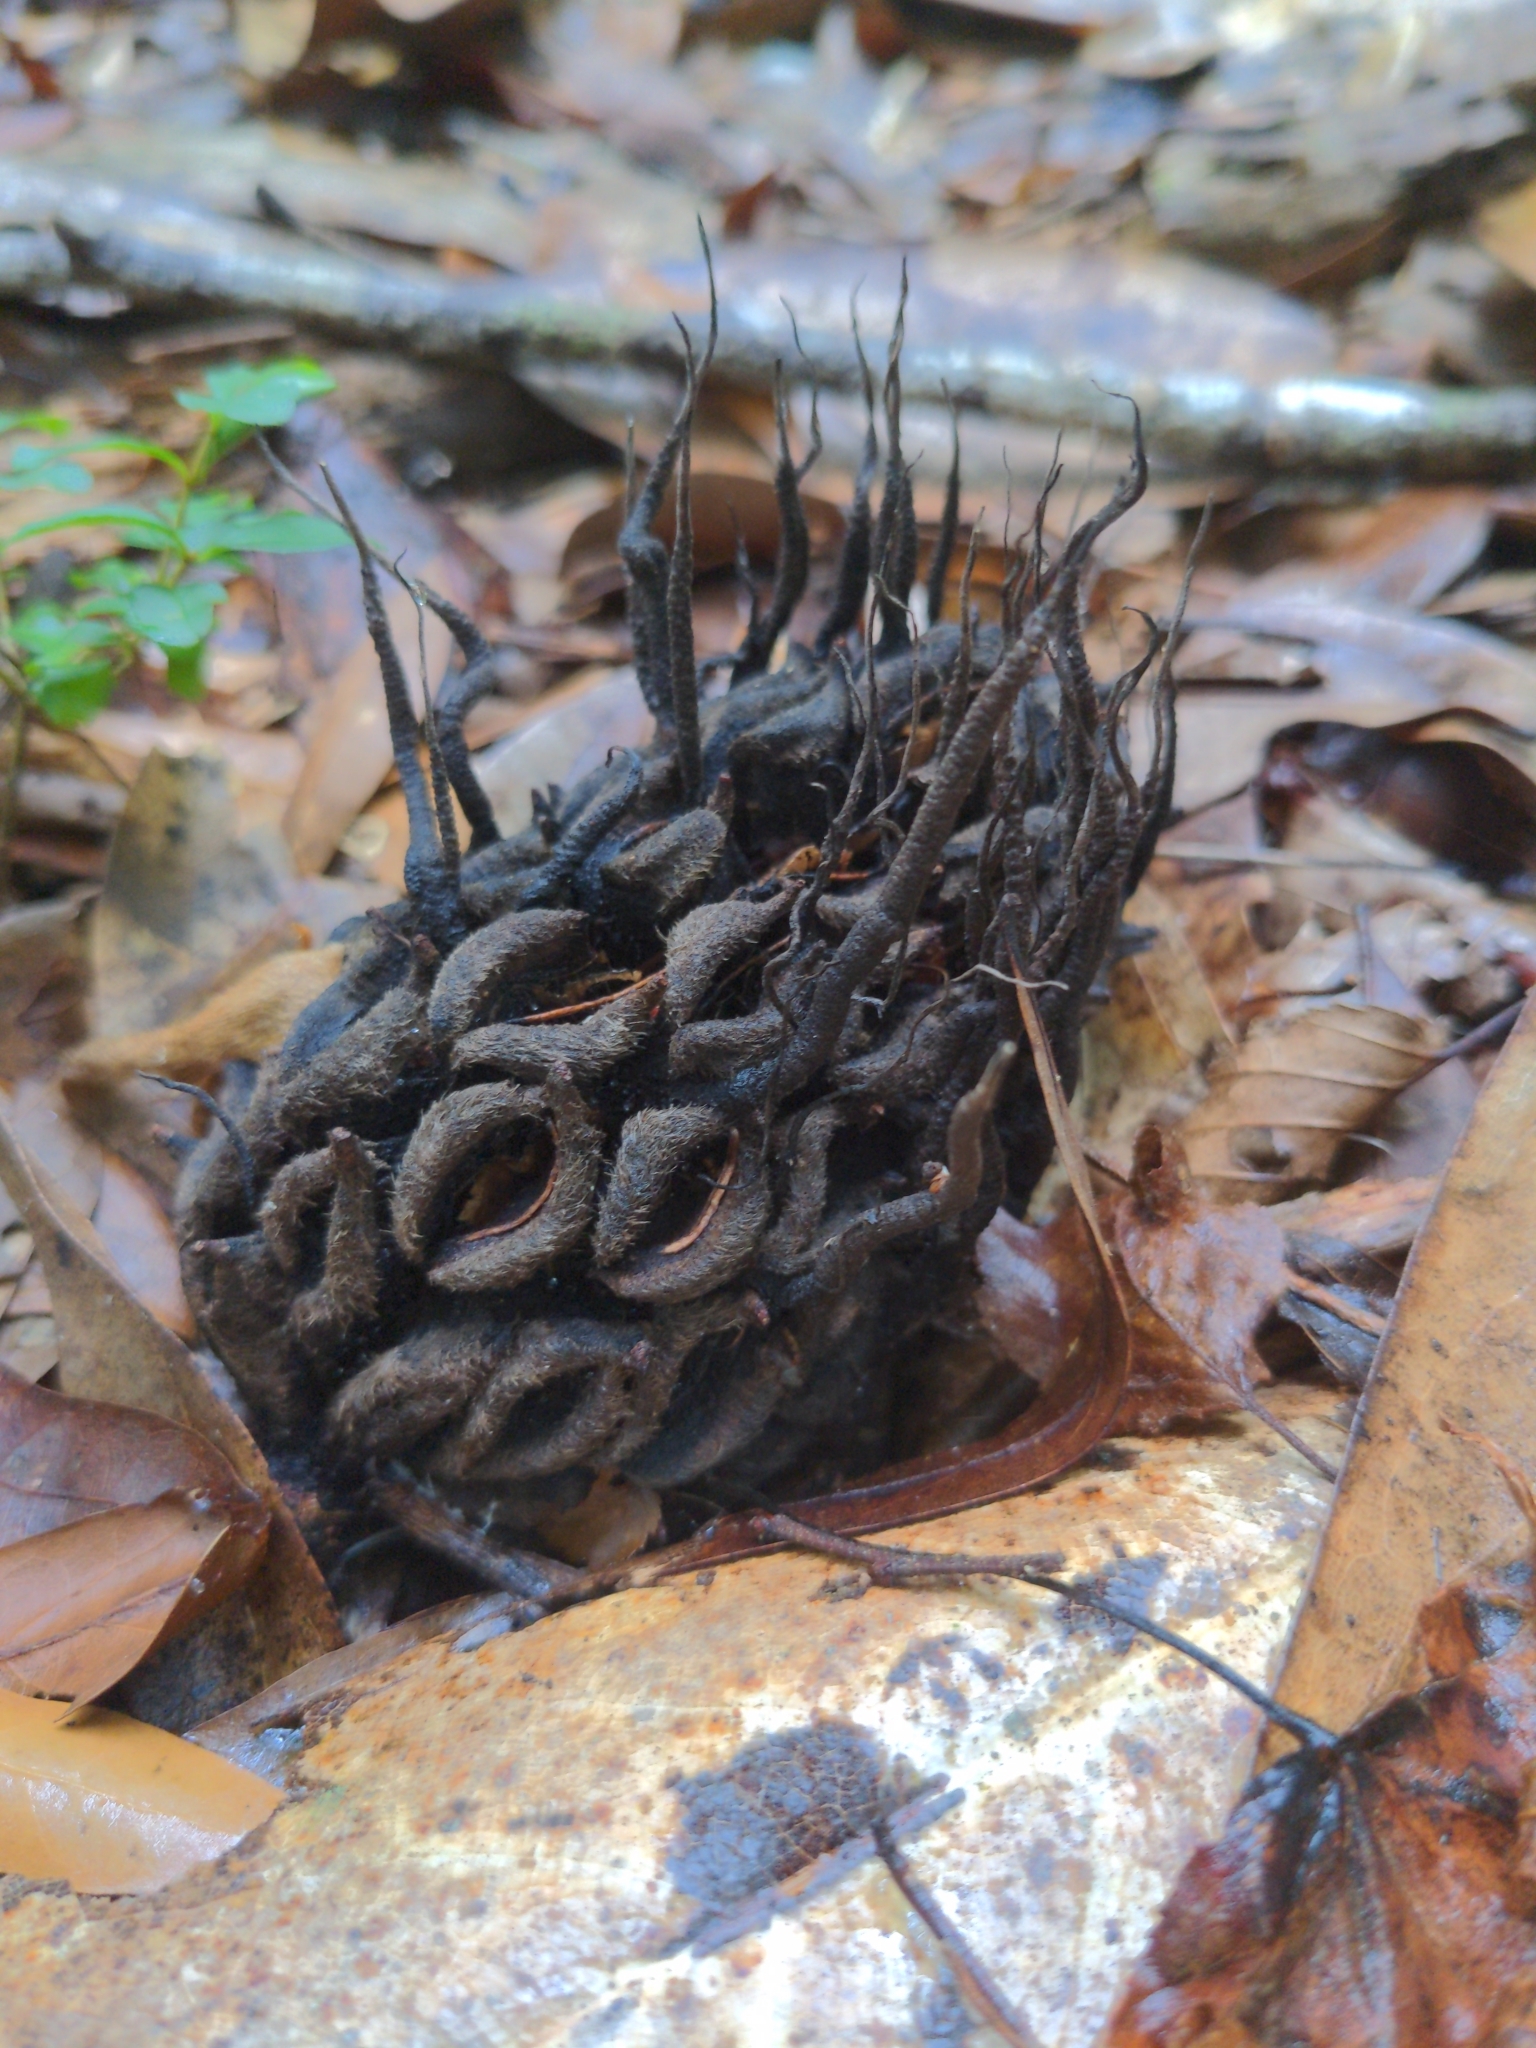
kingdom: Fungi
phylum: Ascomycota
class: Sordariomycetes
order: Xylariales
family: Xylariaceae
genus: Xylaria
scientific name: Xylaria magnoliae
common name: Magnolia-cone xylaria
